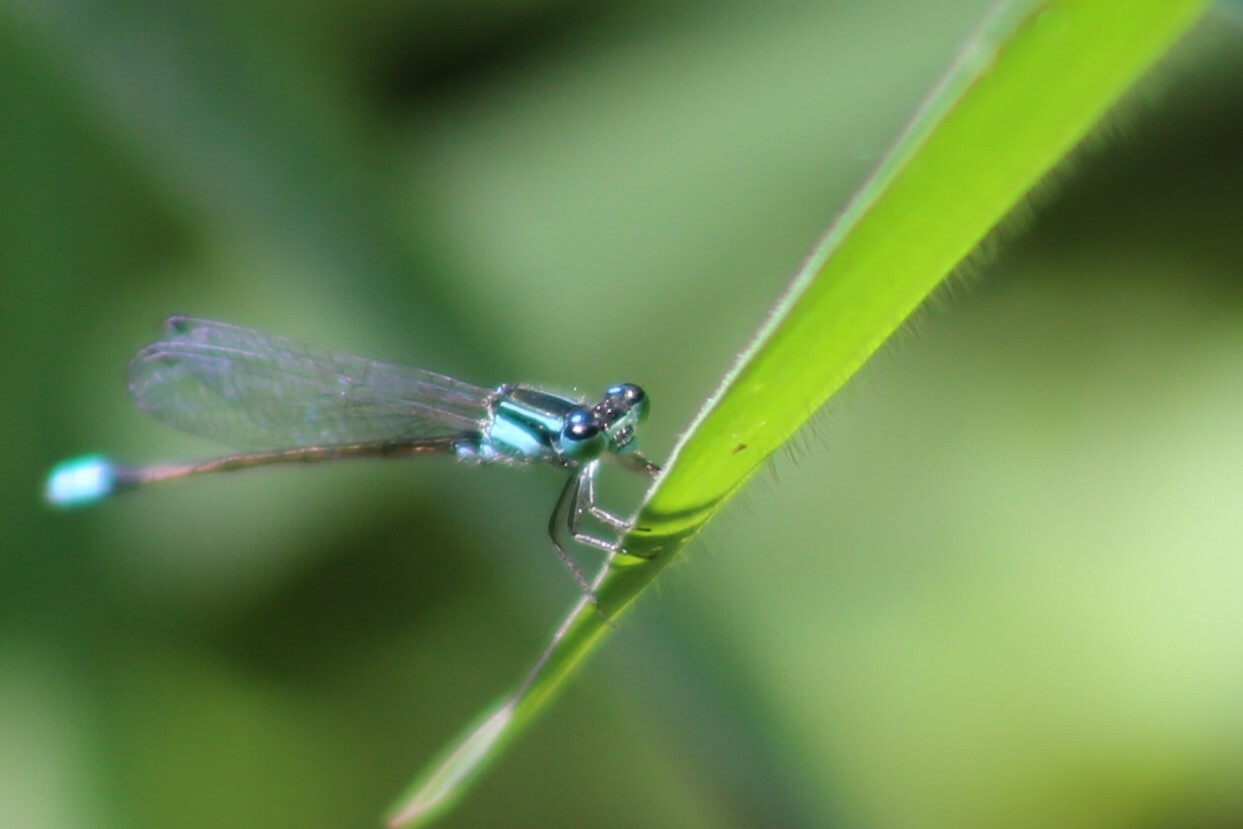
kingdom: Animalia
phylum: Arthropoda
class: Insecta
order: Odonata
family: Coenagrionidae
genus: Ischnura
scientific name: Ischnura heterosticta
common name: Common bluetail
